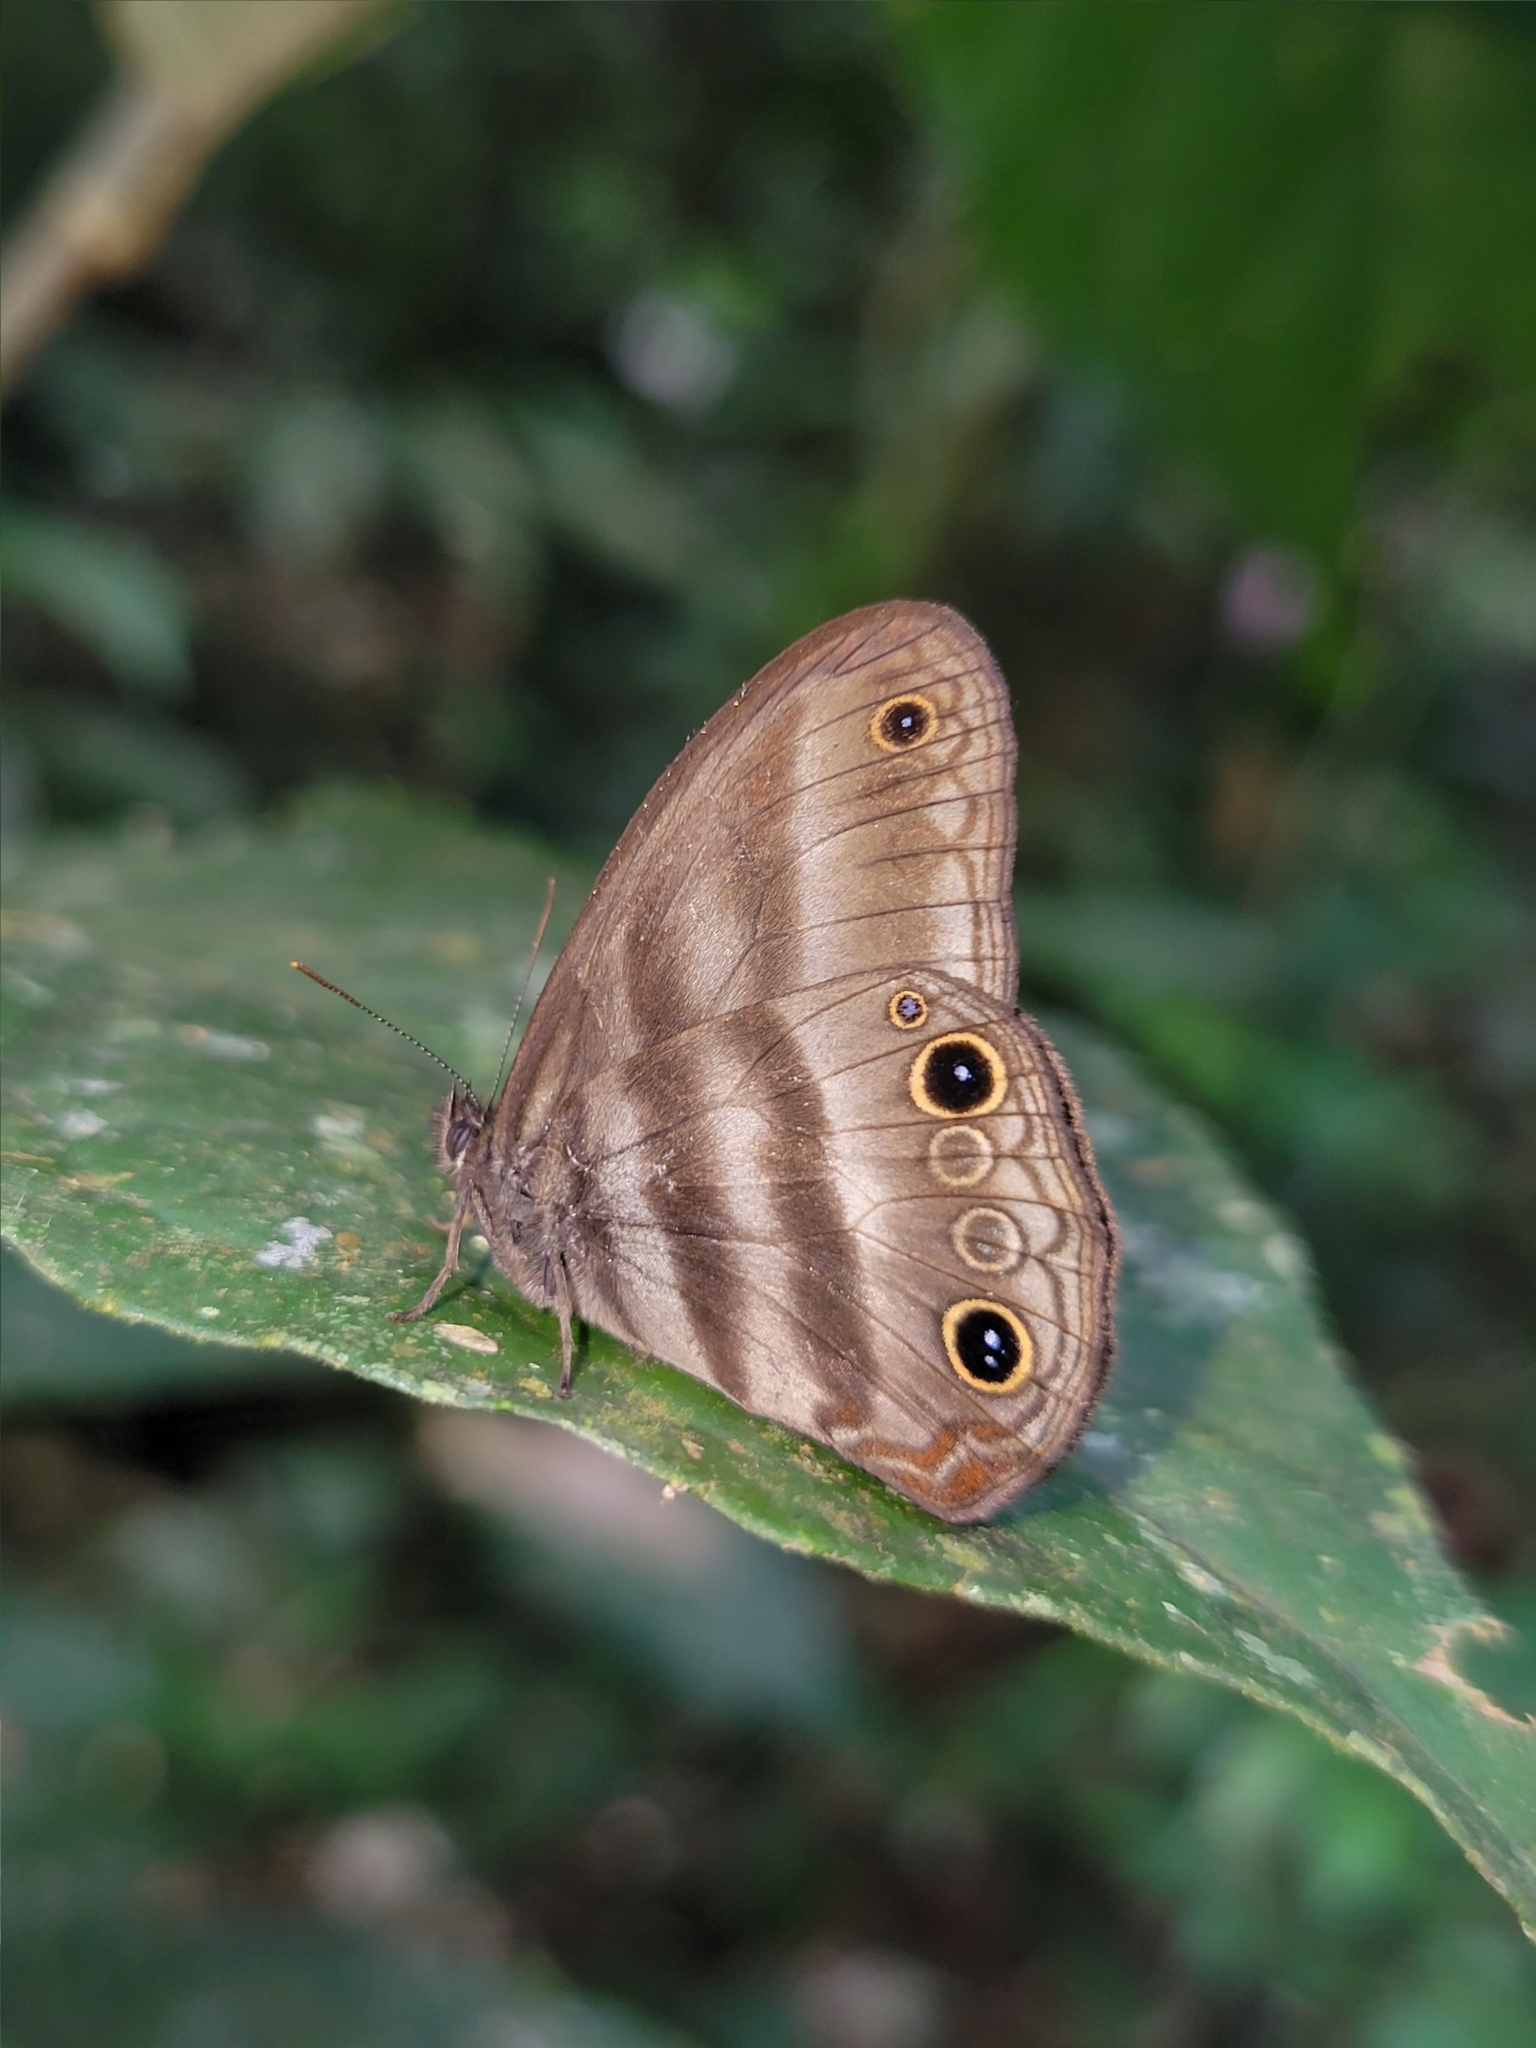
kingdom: Animalia
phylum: Arthropoda
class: Insecta
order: Lepidoptera
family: Nymphalidae
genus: Pareuptychia
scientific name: Pareuptychia milleri
